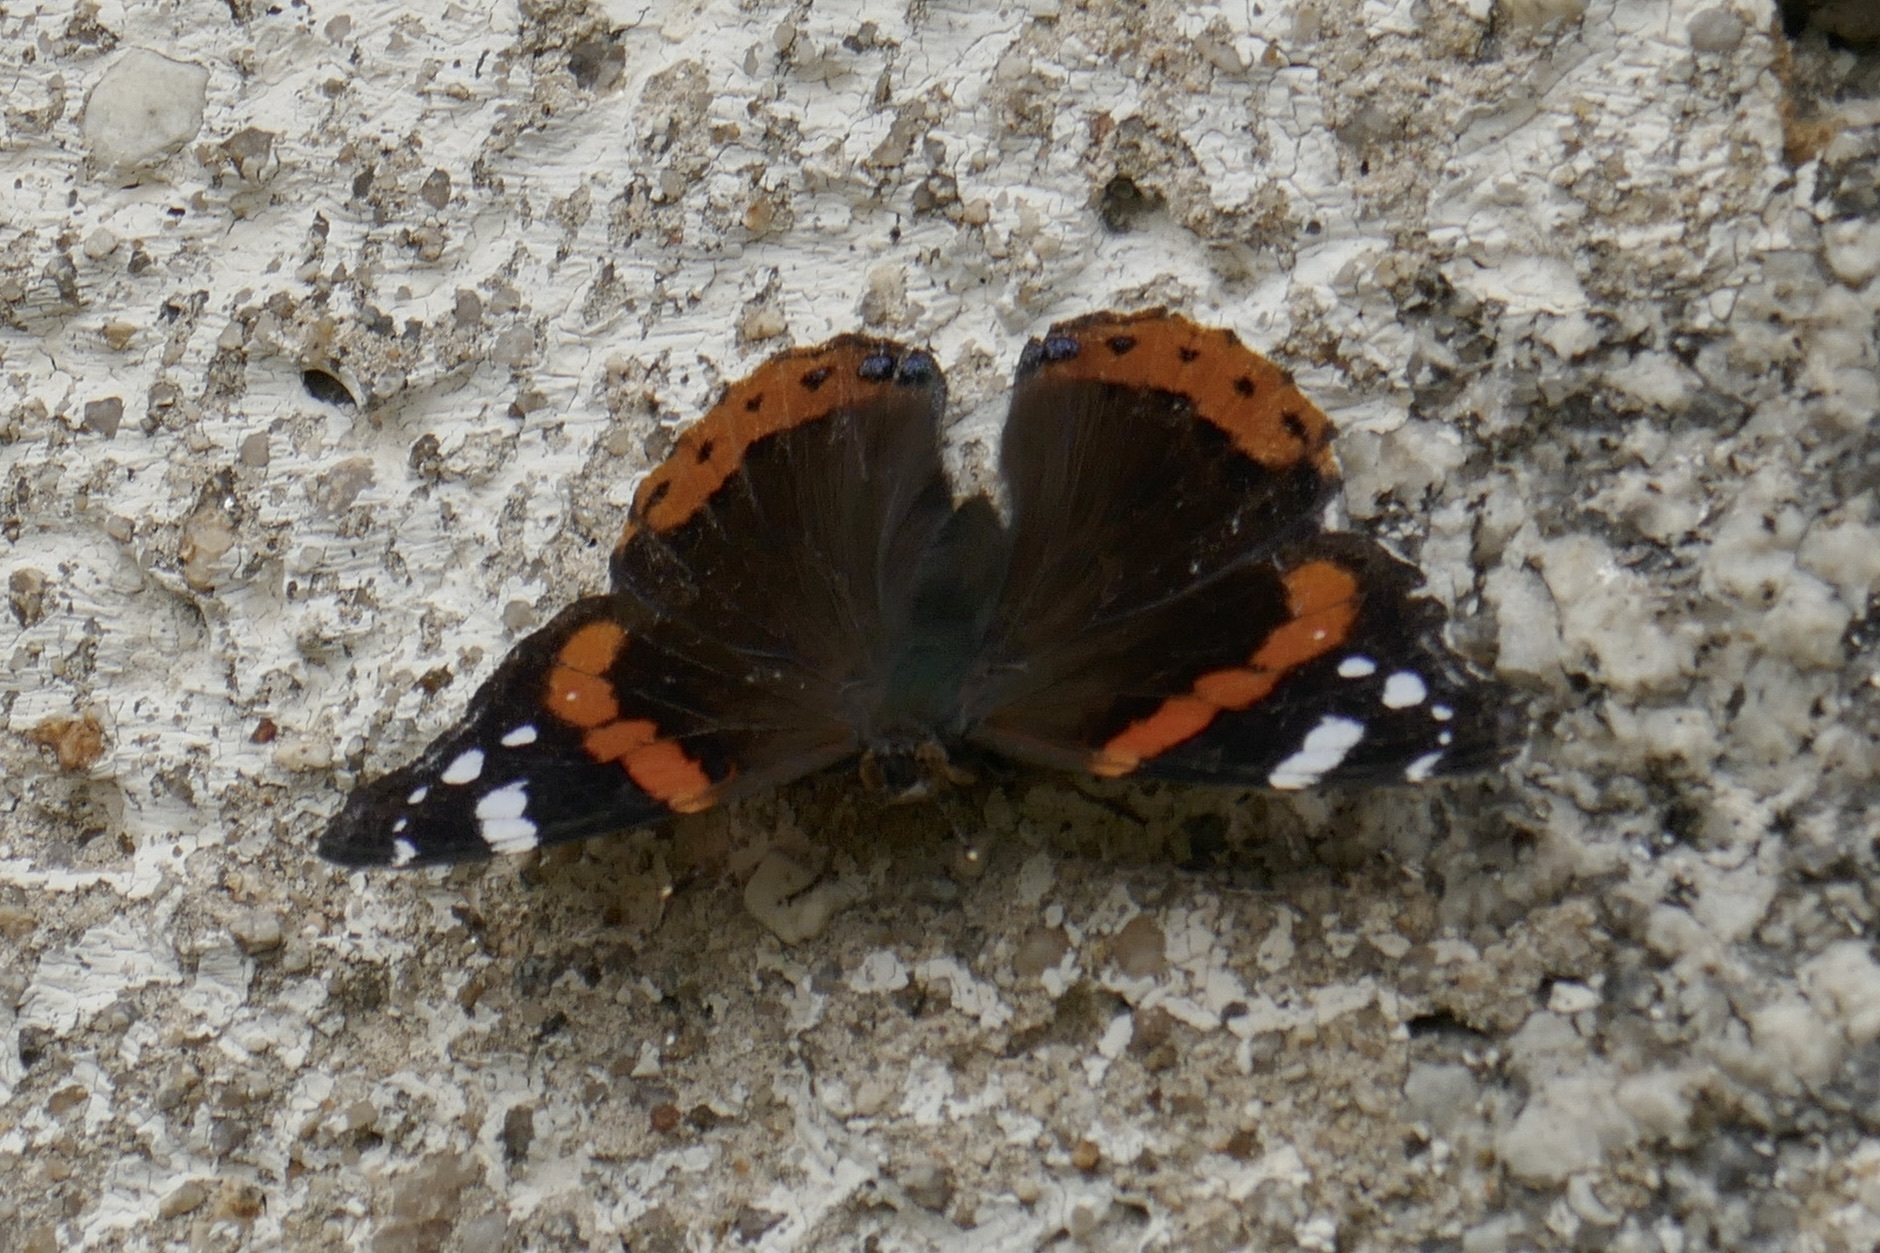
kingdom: Animalia
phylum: Arthropoda
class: Insecta
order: Lepidoptera
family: Nymphalidae
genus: Vanessa
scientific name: Vanessa atalanta
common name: Red admiral
